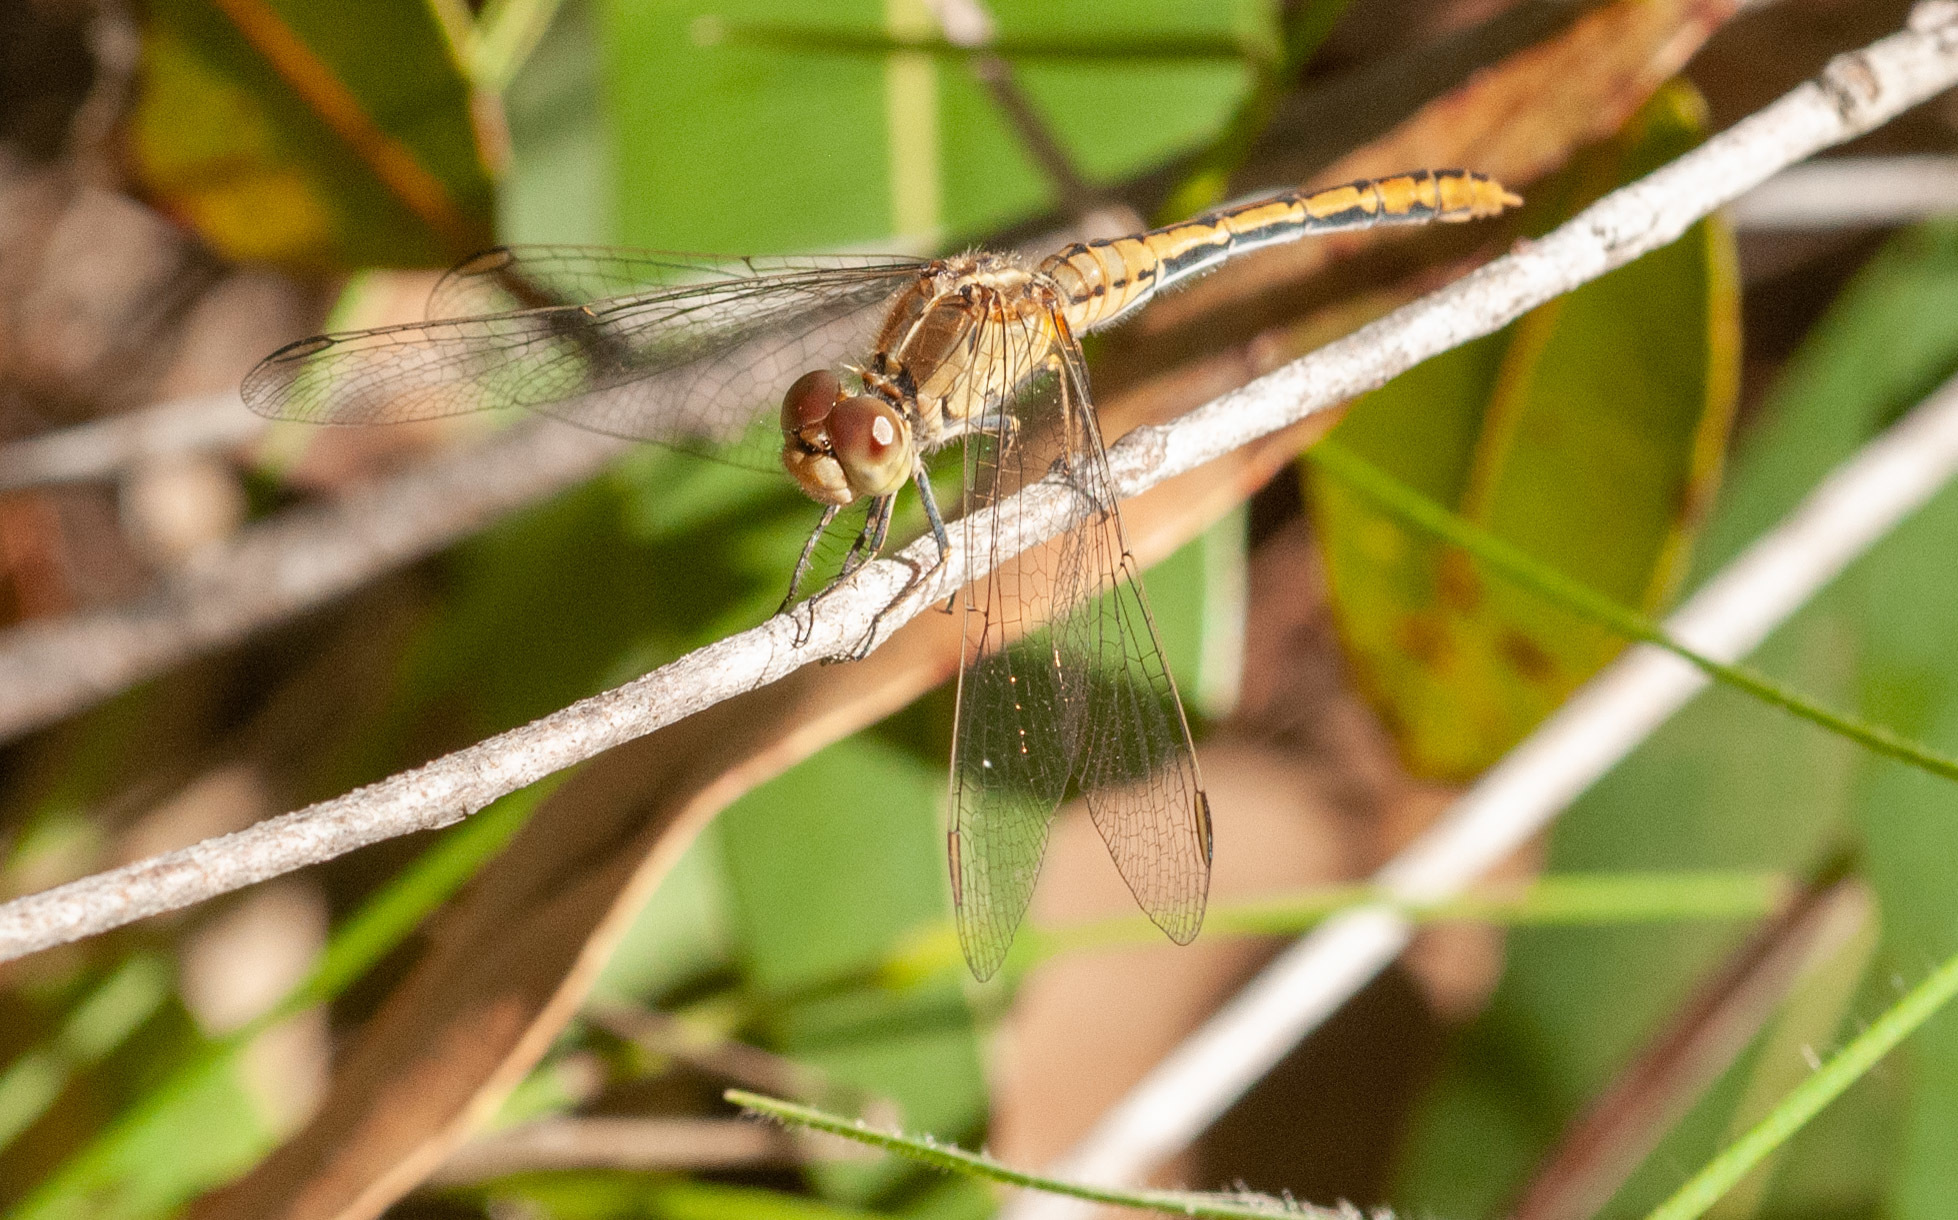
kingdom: Animalia
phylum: Arthropoda
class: Insecta
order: Odonata
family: Libellulidae
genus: Diplacodes
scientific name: Diplacodes bipunctata
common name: Red percher dragonfly
